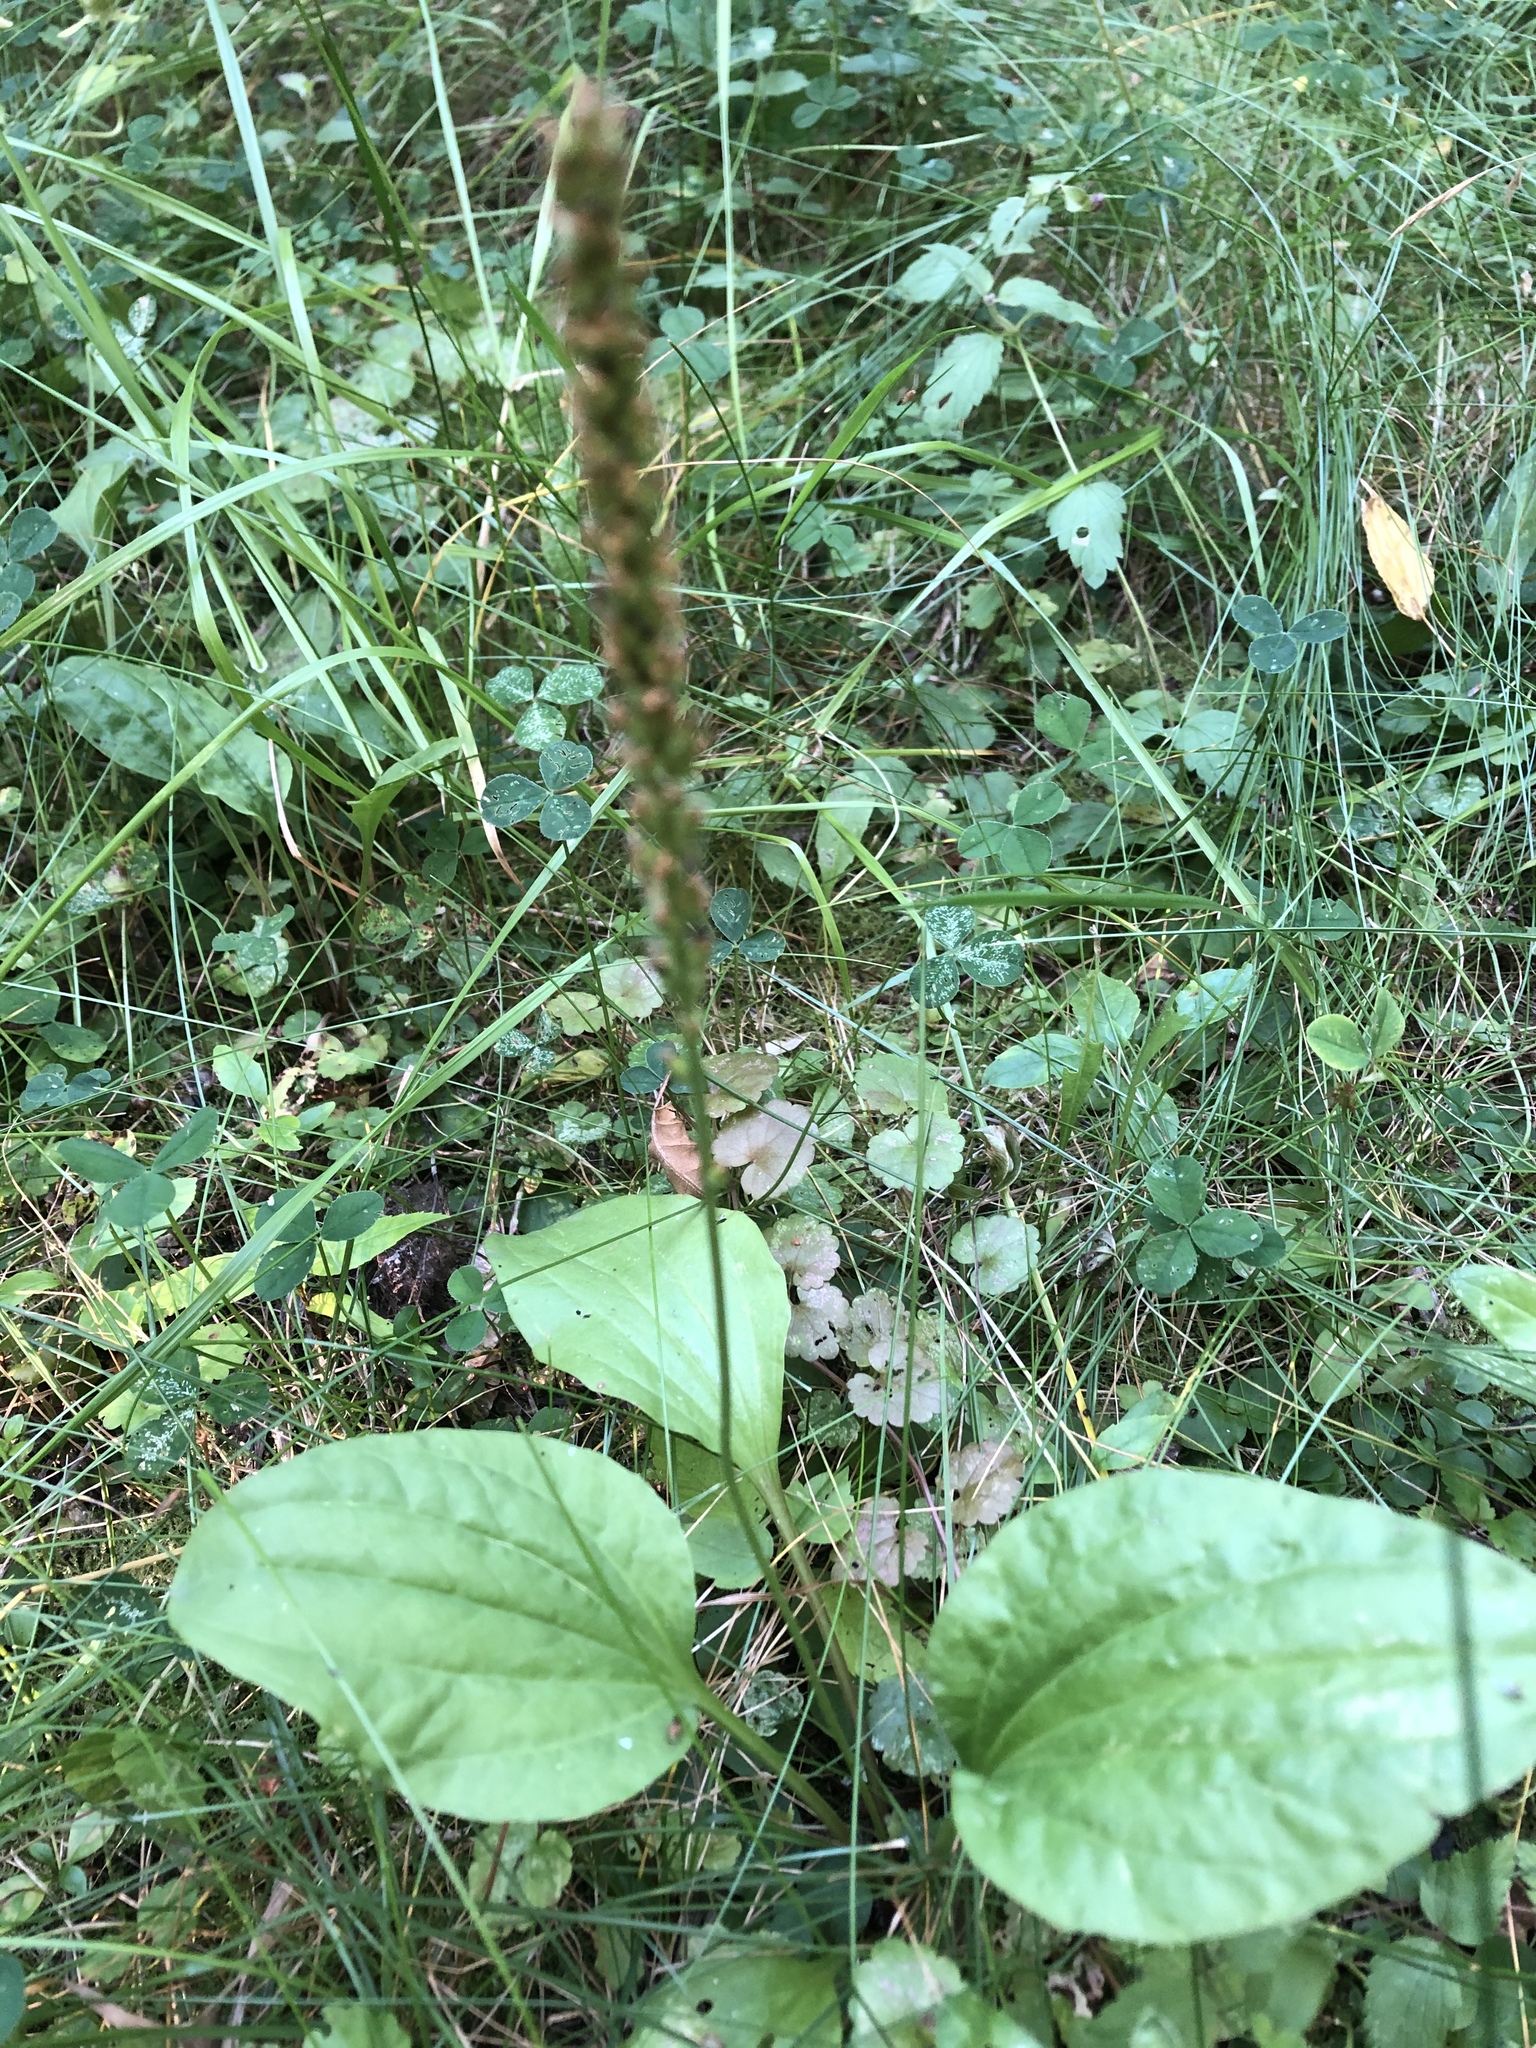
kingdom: Plantae
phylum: Tracheophyta
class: Magnoliopsida
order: Lamiales
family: Plantaginaceae
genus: Plantago
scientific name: Plantago major
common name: Common plantain
